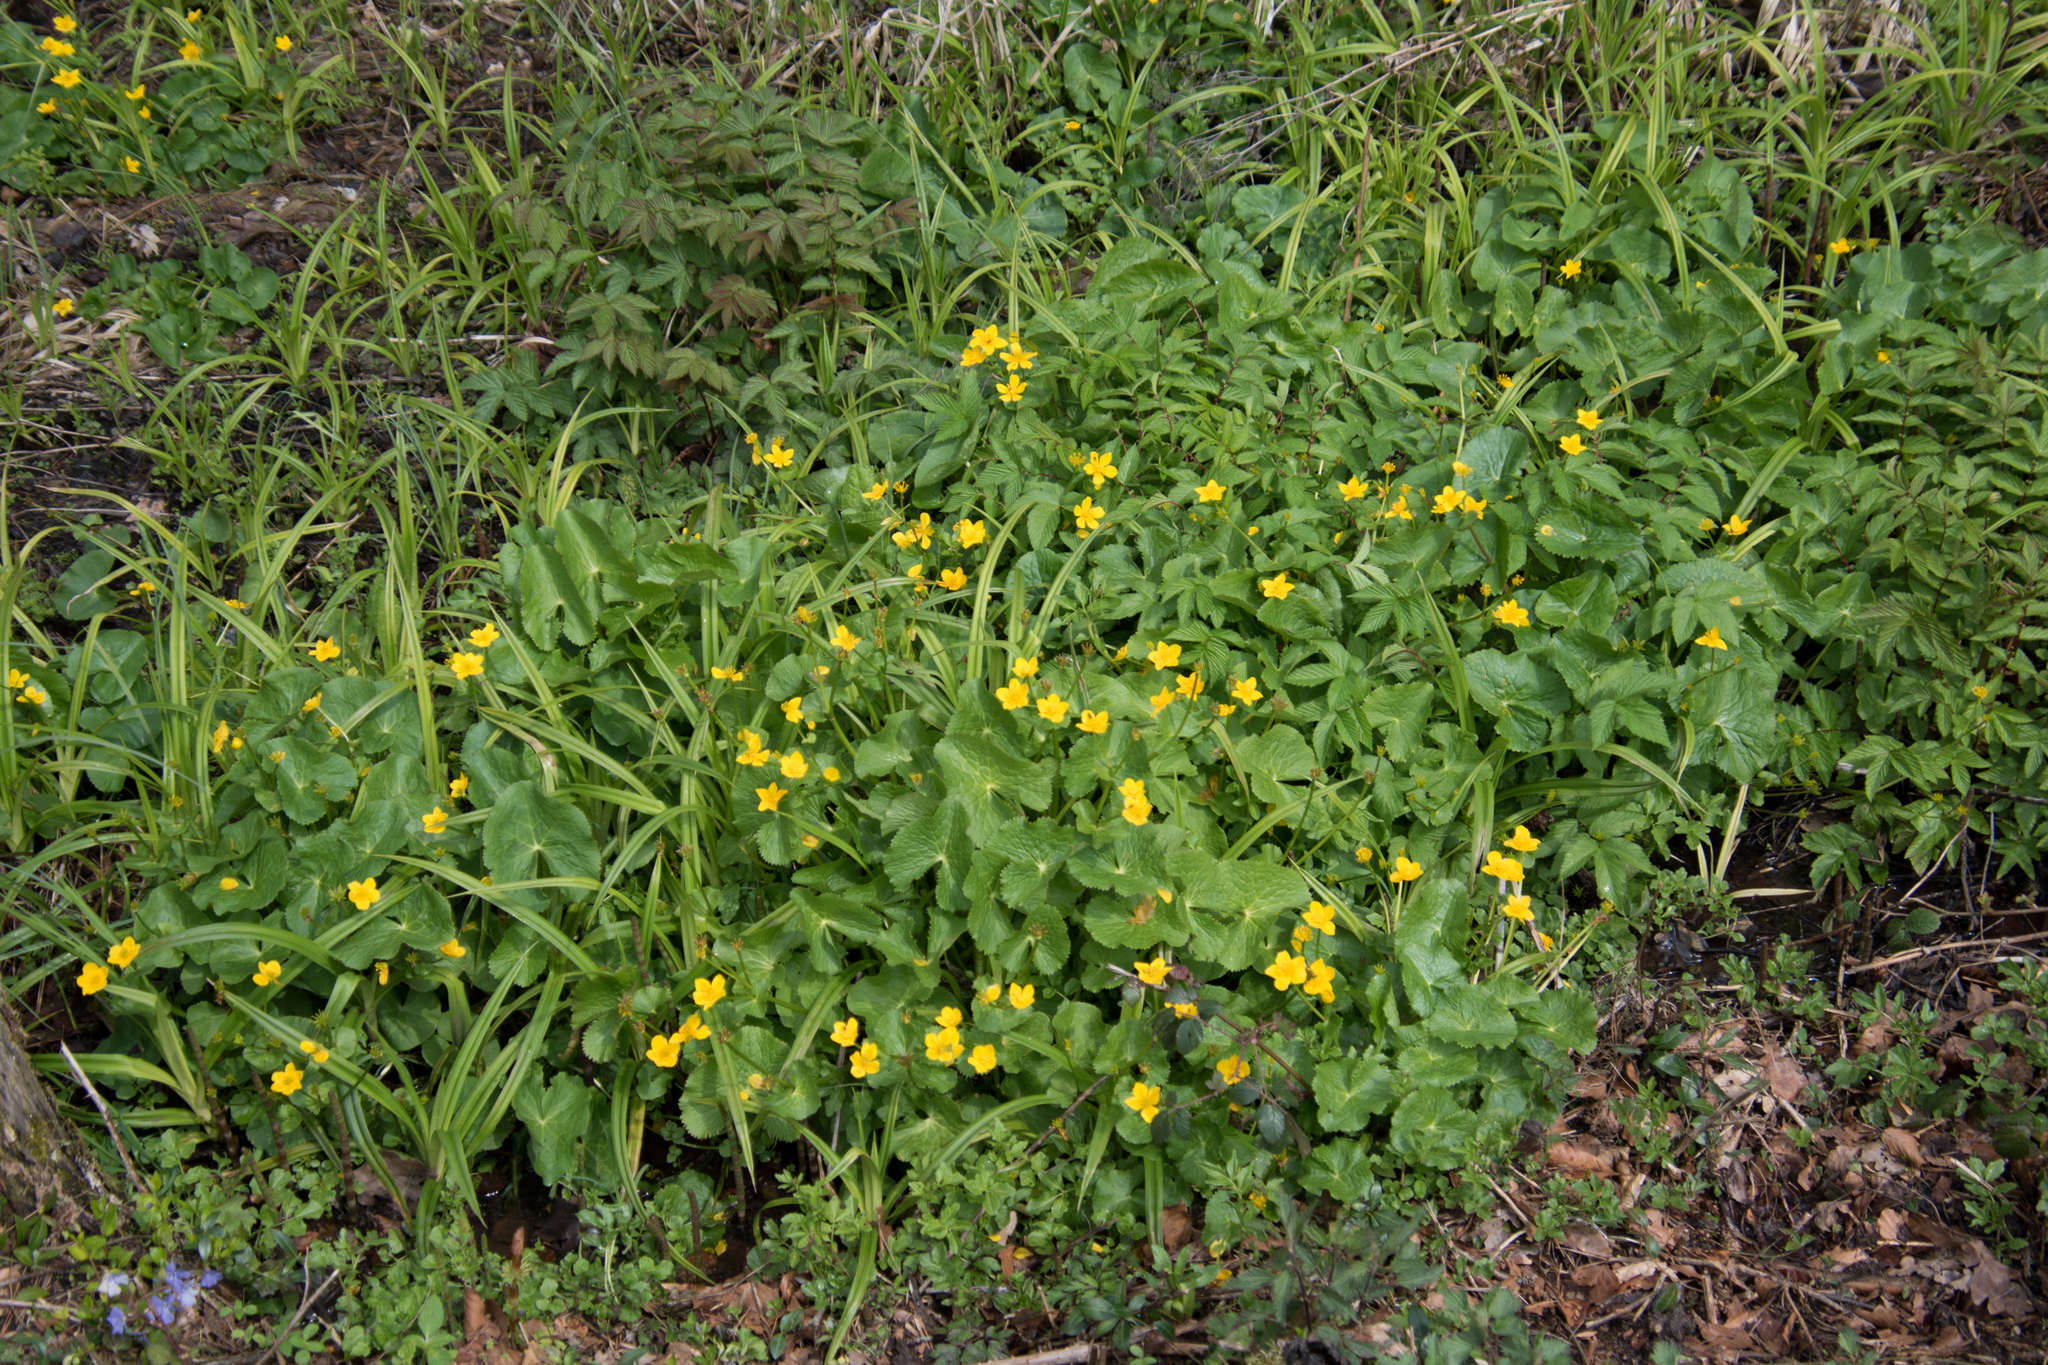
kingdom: Plantae
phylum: Tracheophyta
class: Magnoliopsida
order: Ranunculales
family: Ranunculaceae
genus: Caltha
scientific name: Caltha palustris
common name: Marsh marigold
